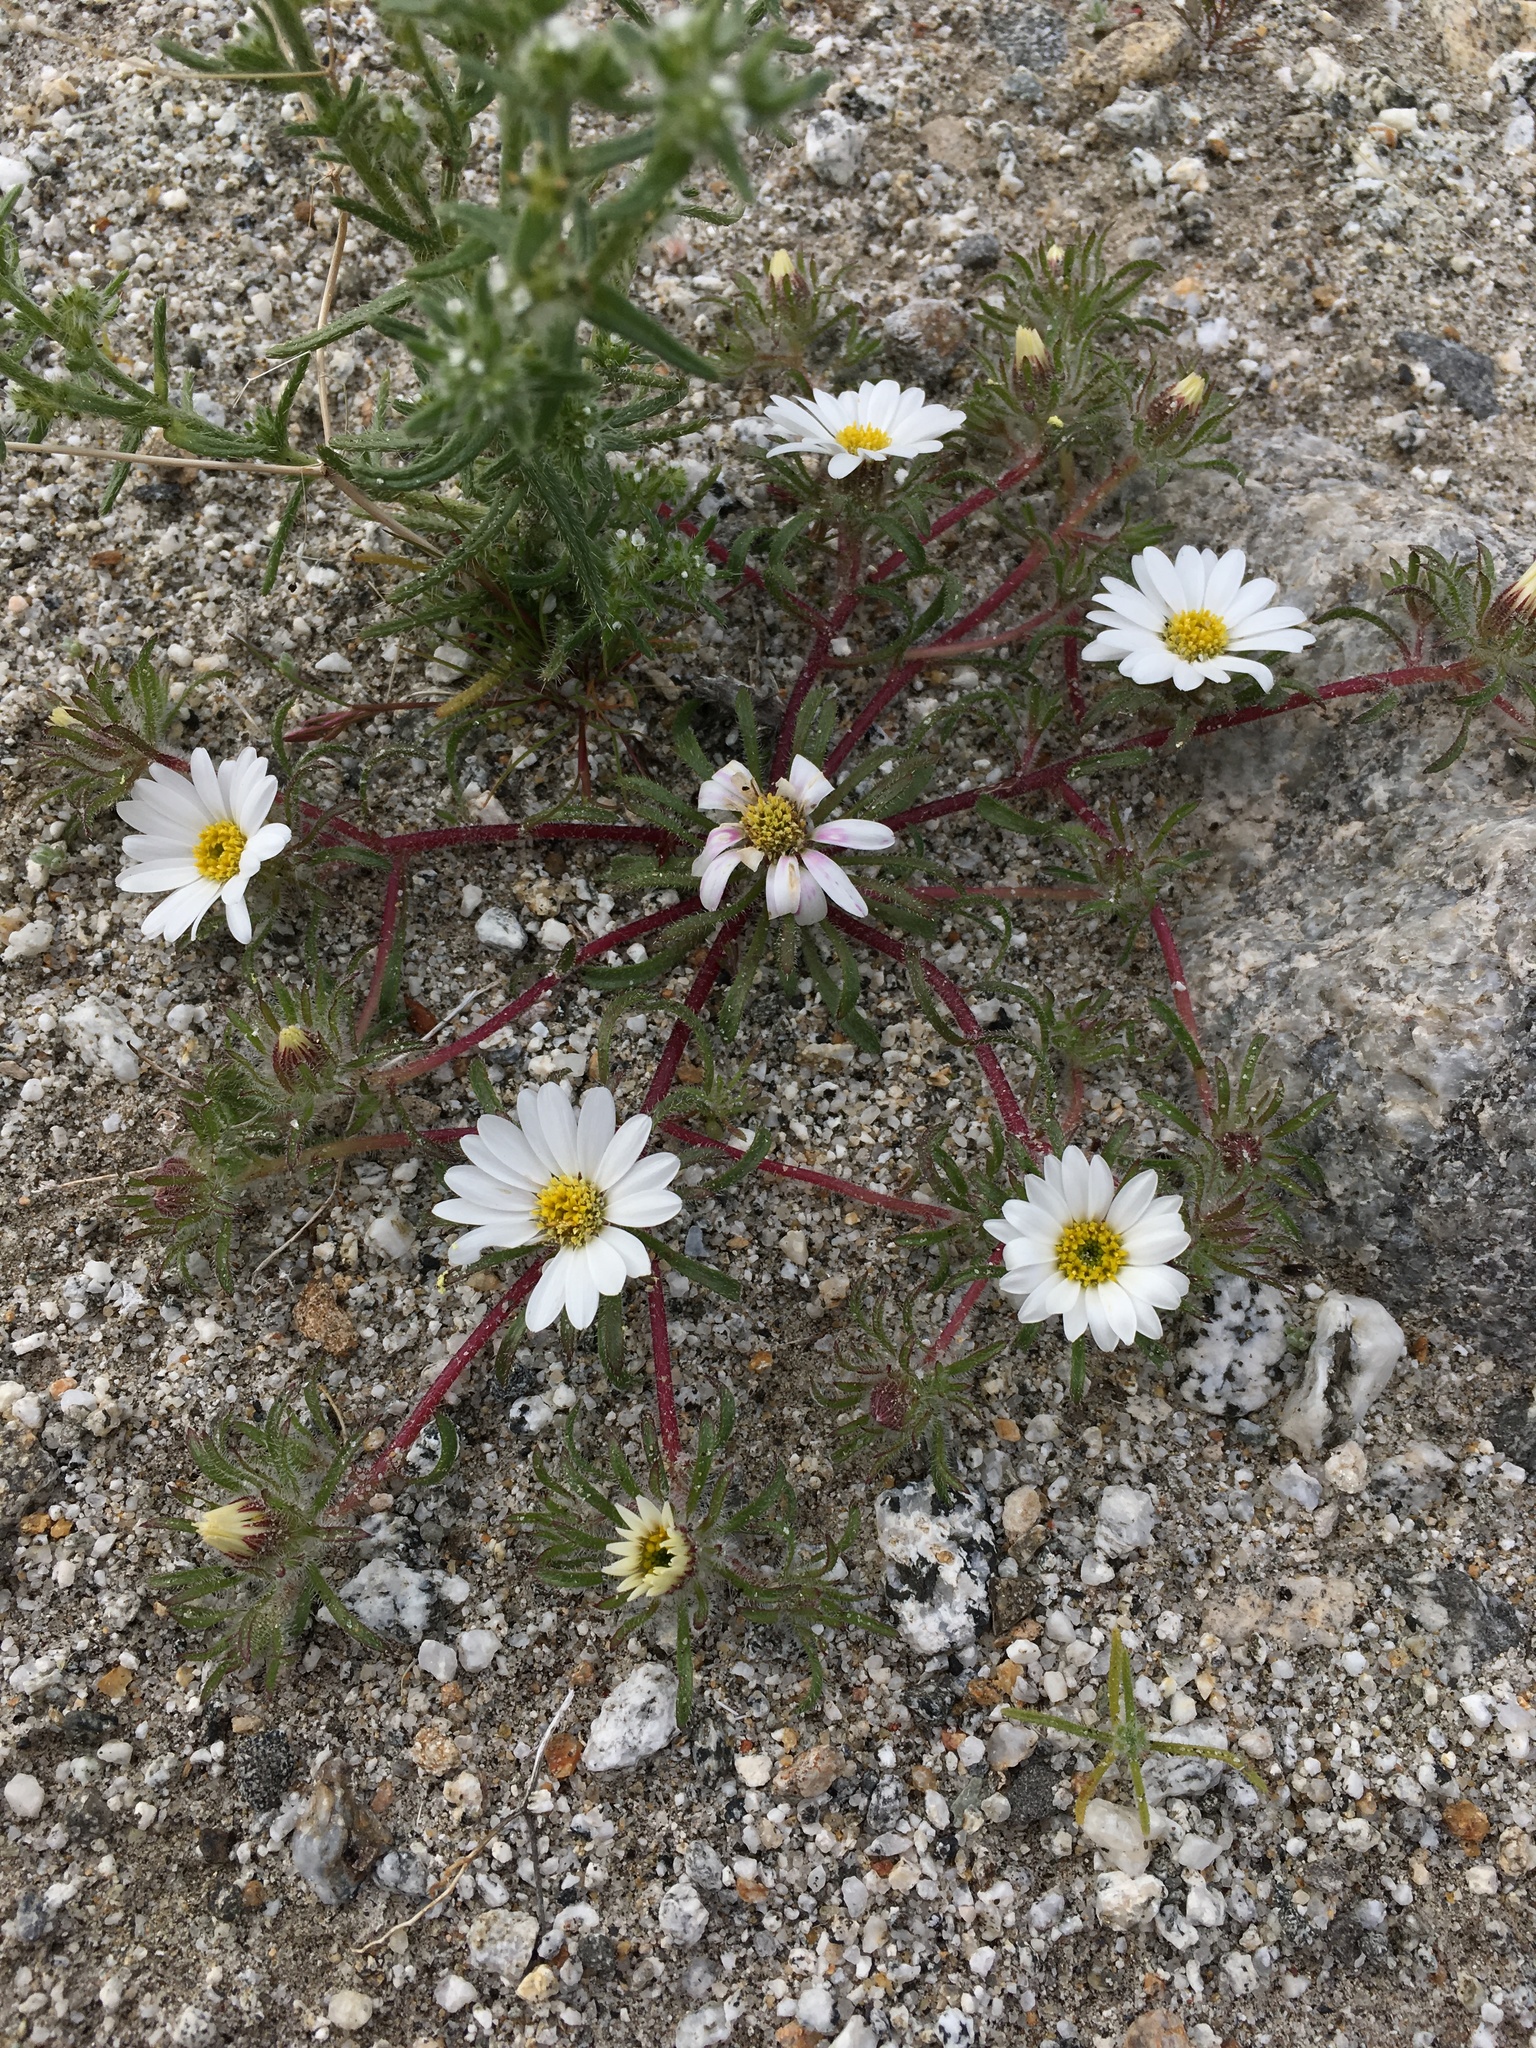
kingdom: Plantae
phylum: Tracheophyta
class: Magnoliopsida
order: Asterales
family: Asteraceae
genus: Monoptilon
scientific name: Monoptilon bellioides
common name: Bristly desertstar
